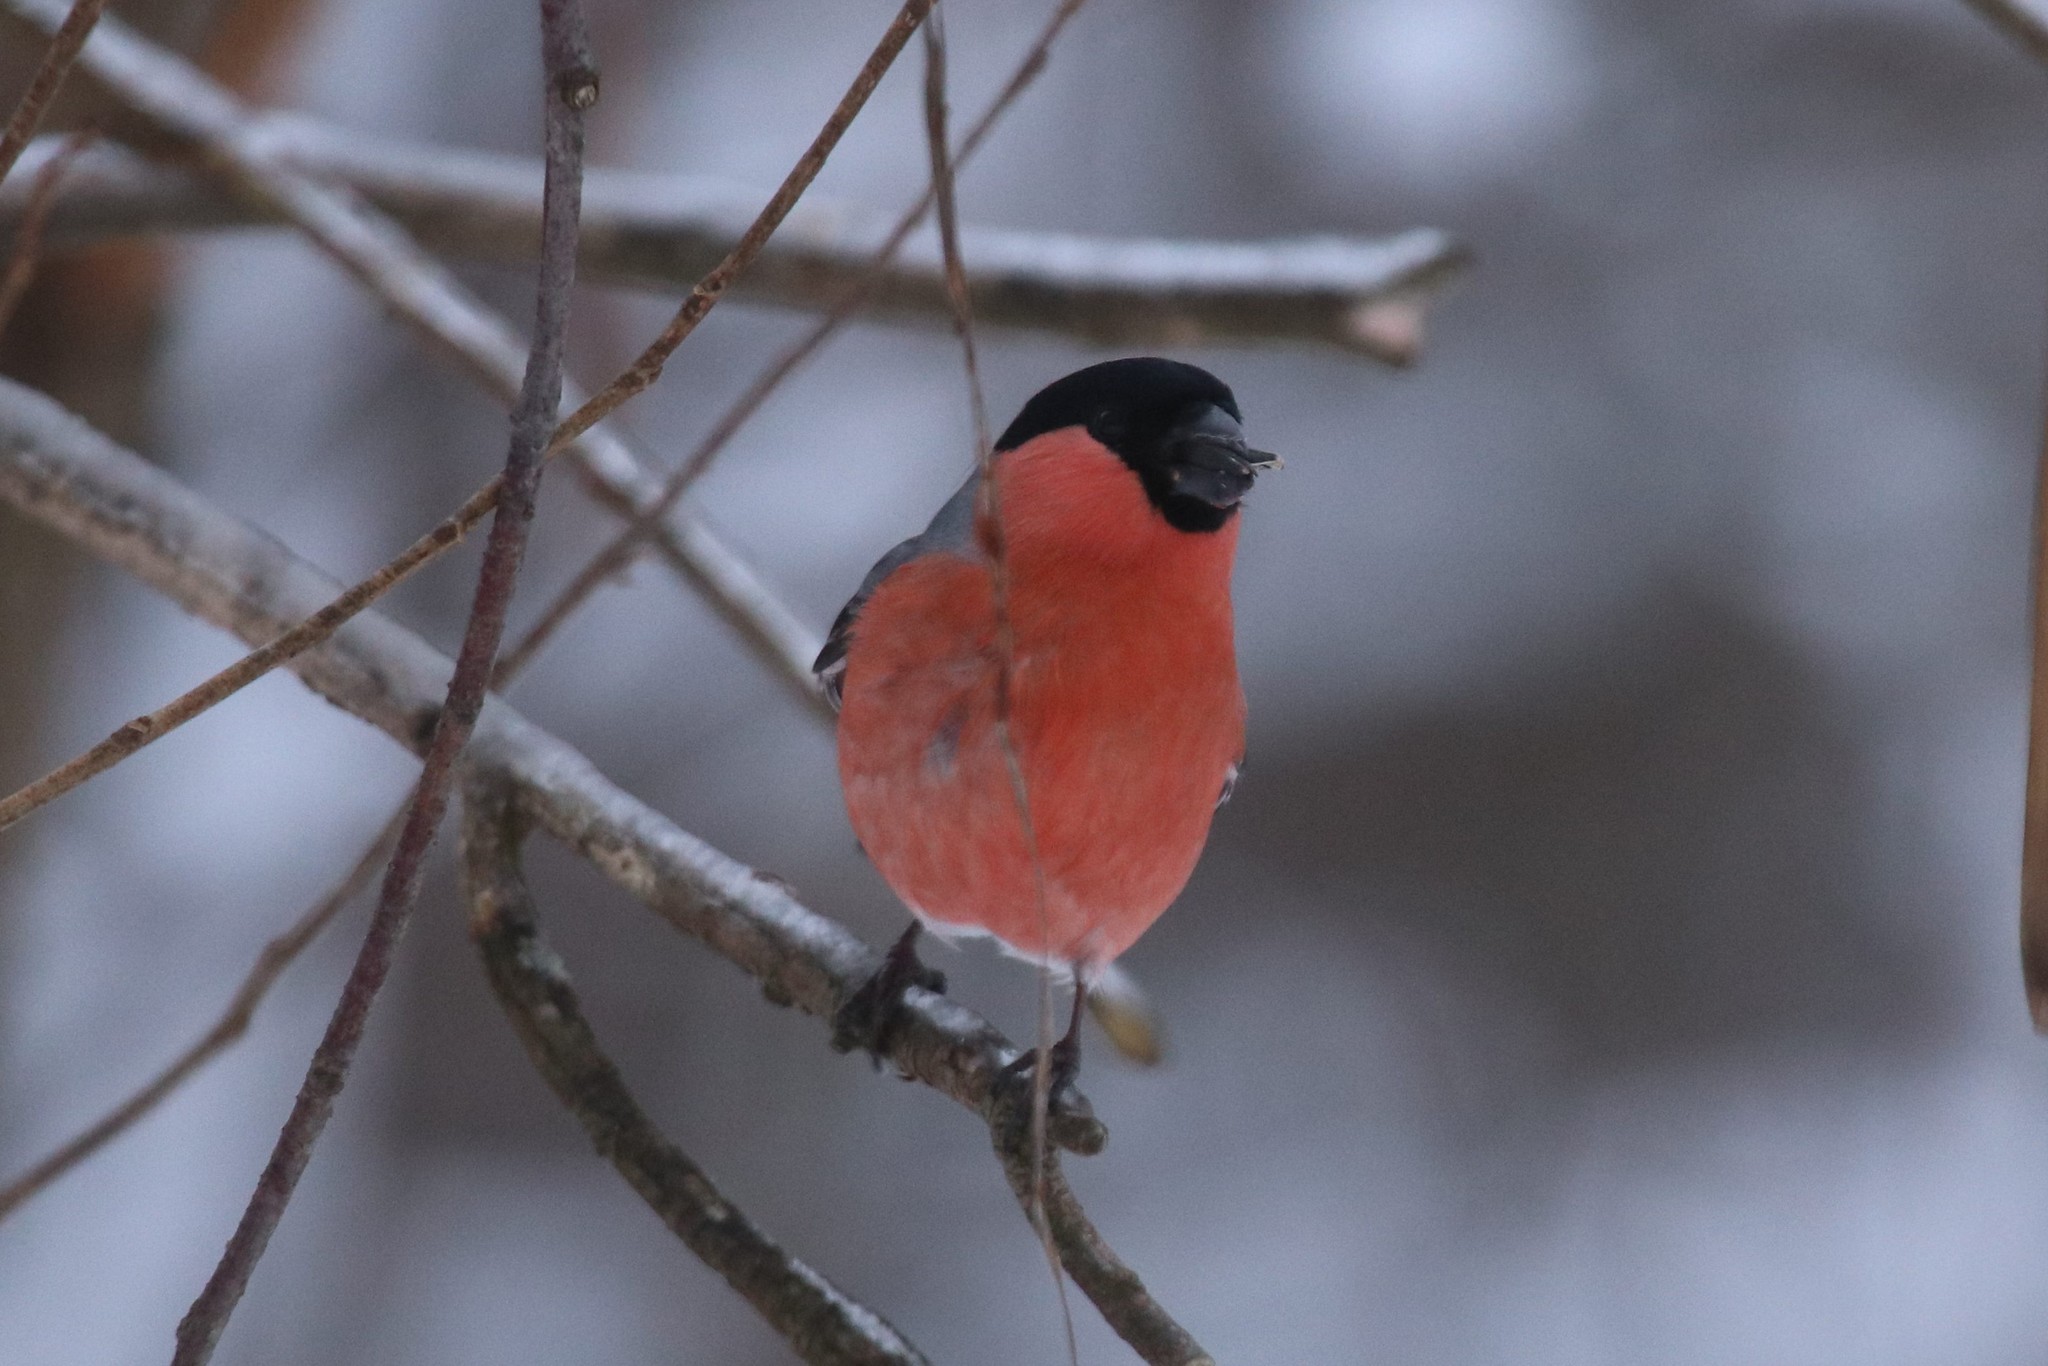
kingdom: Animalia
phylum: Chordata
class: Aves
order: Passeriformes
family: Fringillidae
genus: Pyrrhula
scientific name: Pyrrhula pyrrhula
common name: Eurasian bullfinch
